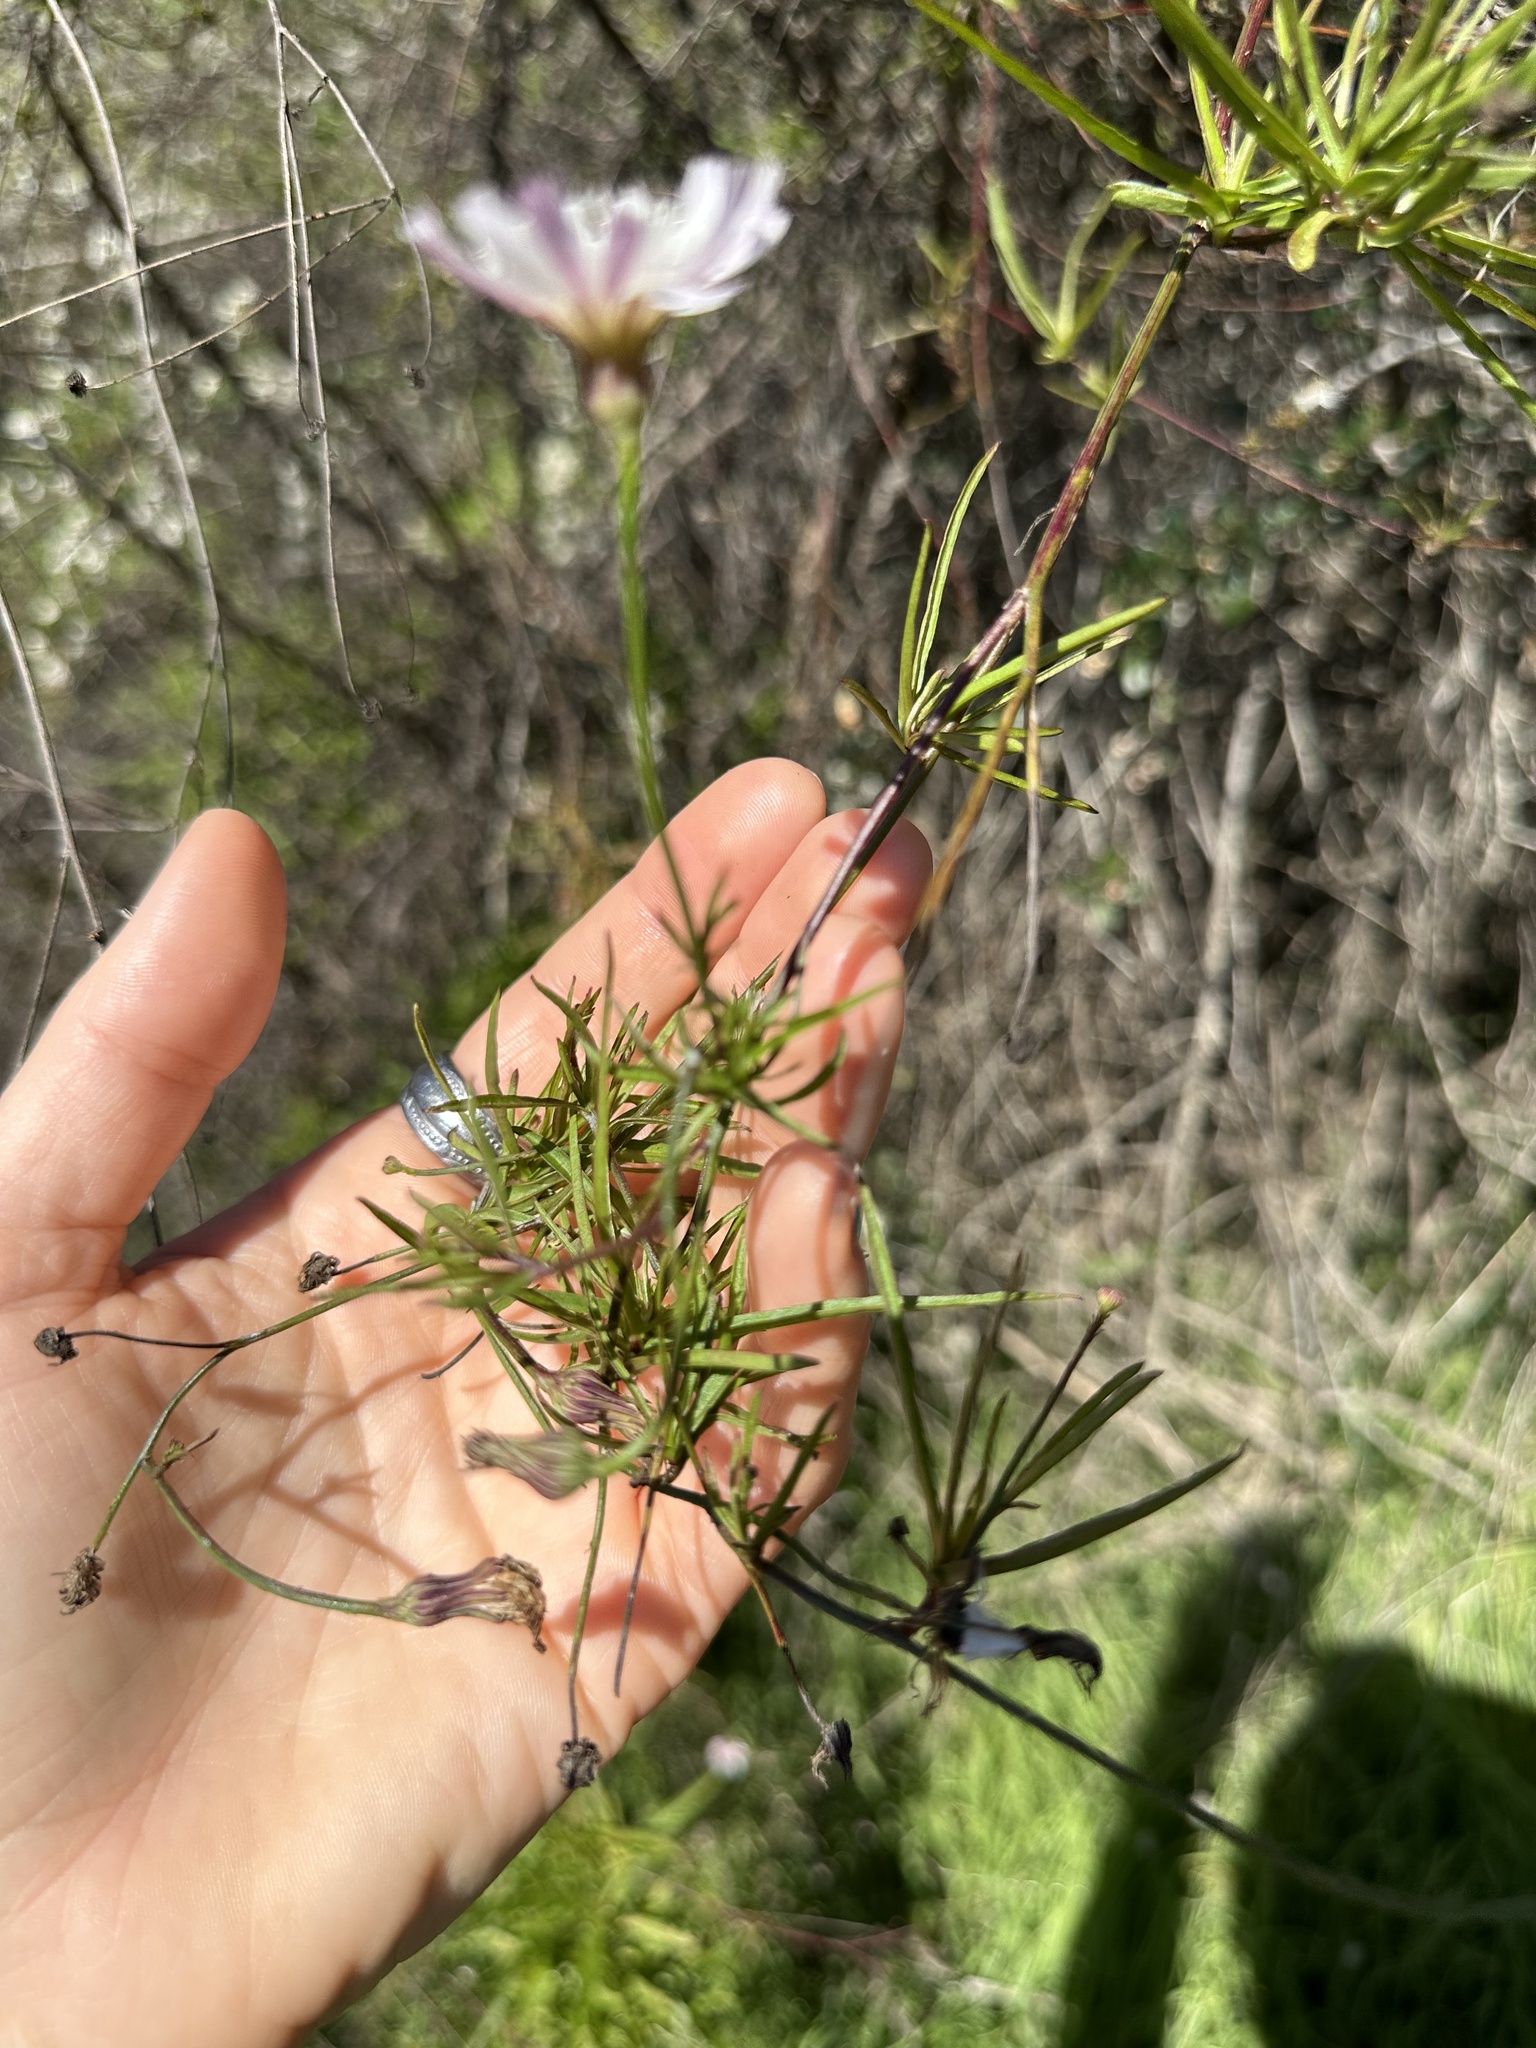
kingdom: Plantae
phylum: Tracheophyta
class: Magnoliopsida
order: Asterales
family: Asteraceae
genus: Malacothrix
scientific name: Malacothrix saxatilis
